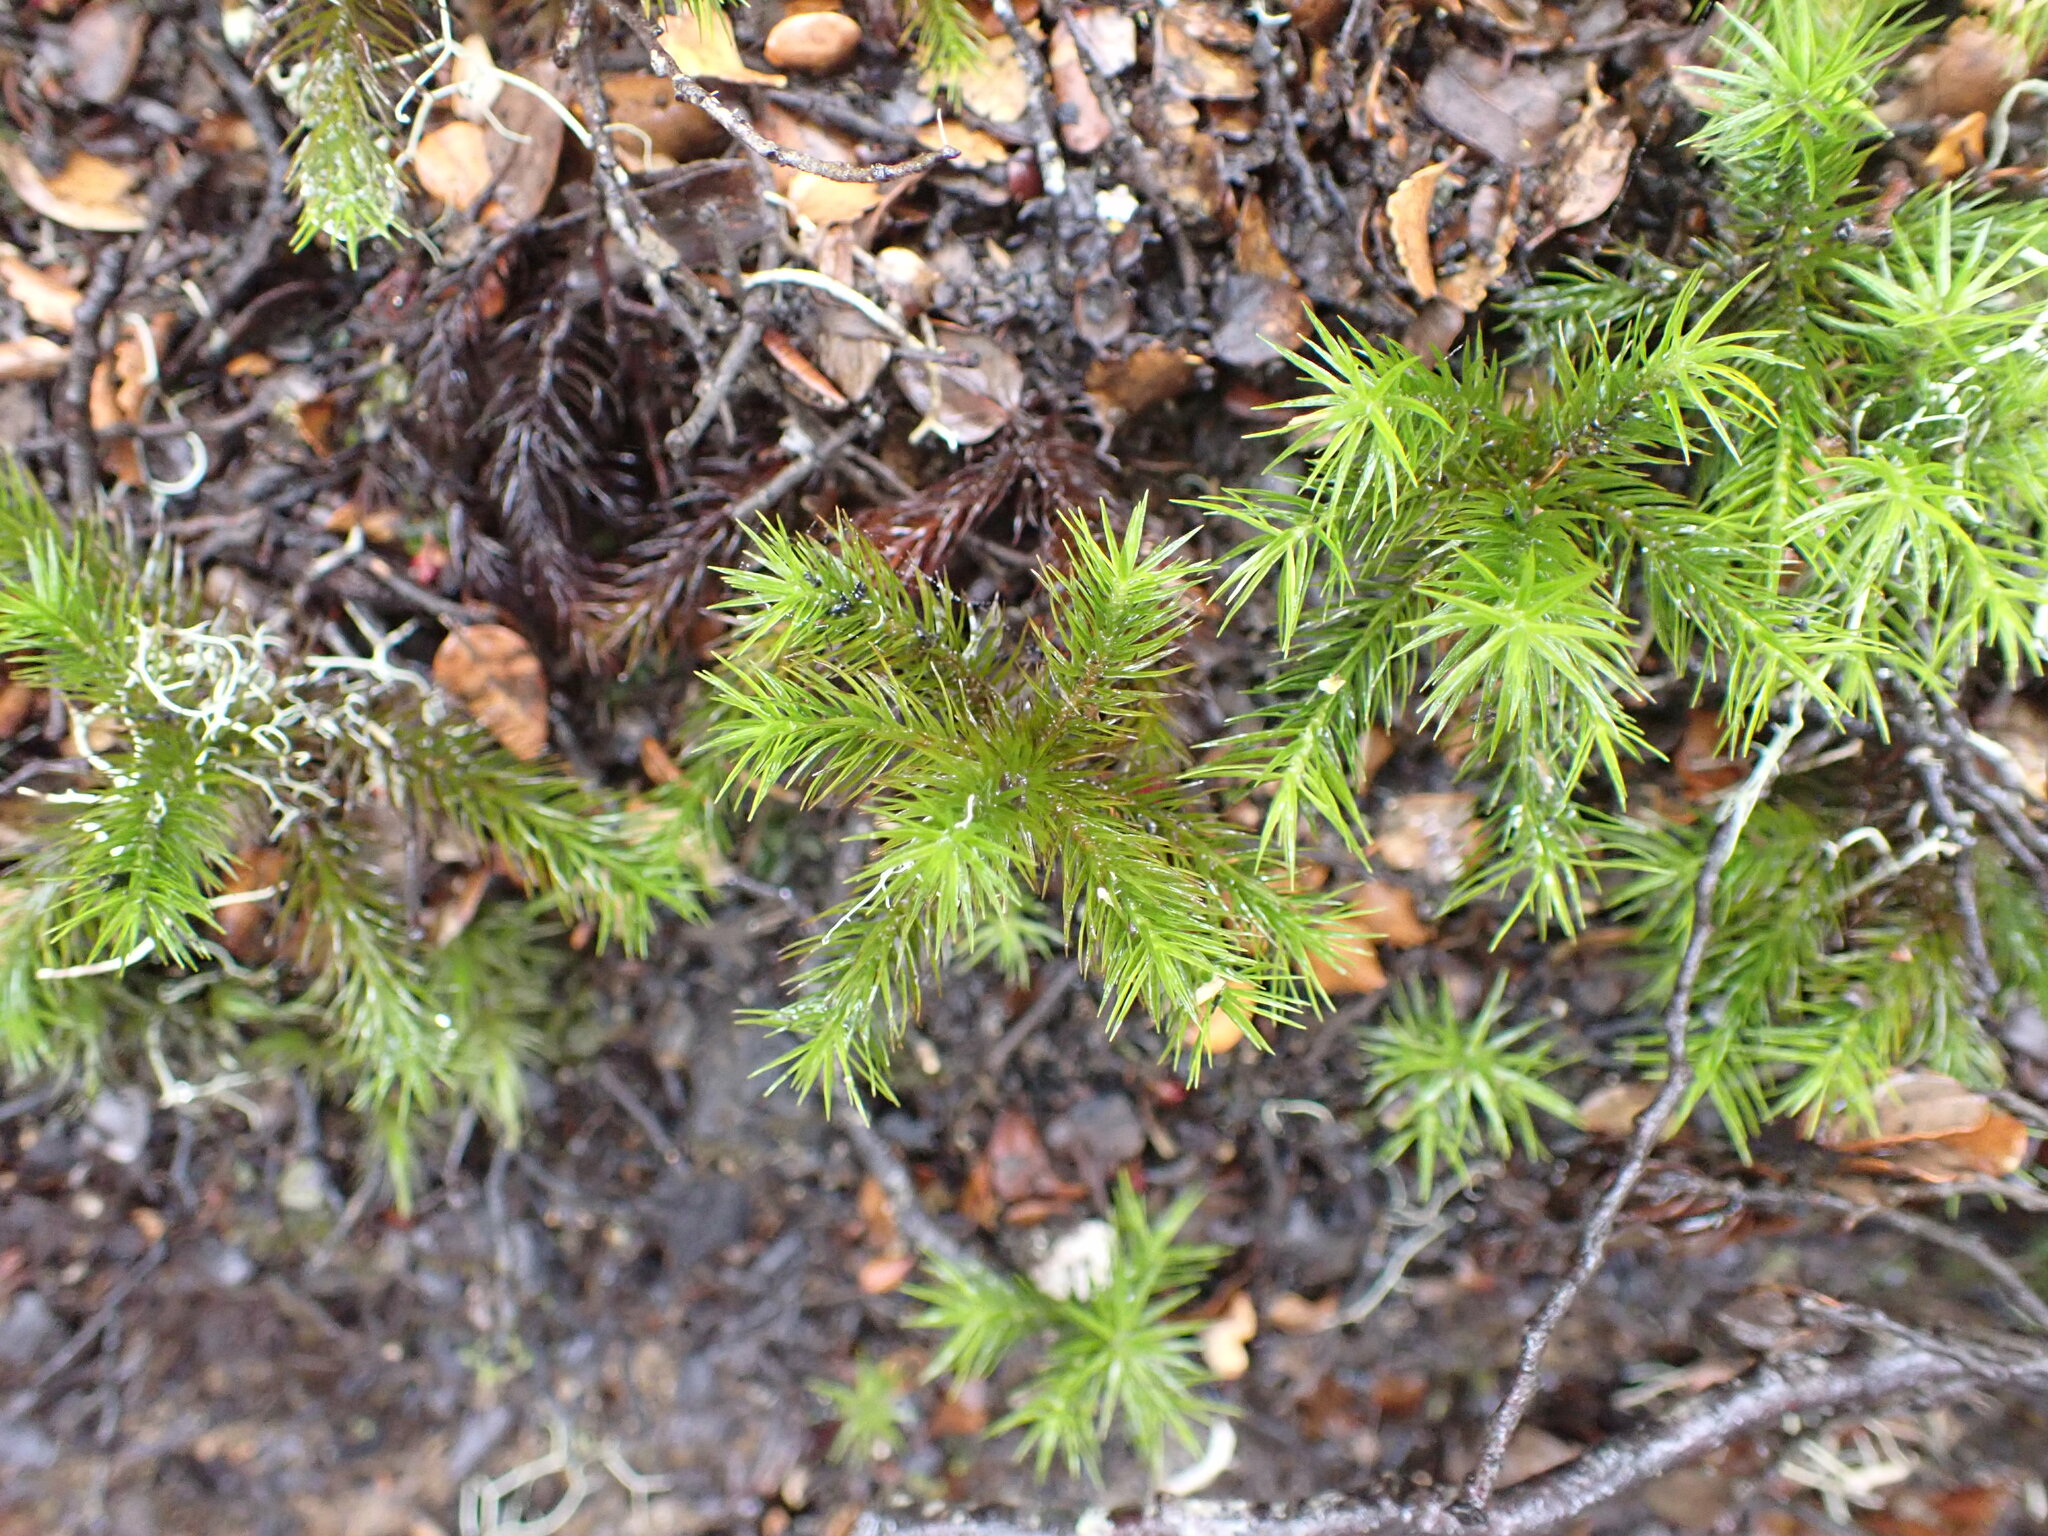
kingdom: Plantae
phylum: Bryophyta
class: Polytrichopsida
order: Polytrichales
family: Polytrichaceae
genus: Dendroligotrichum
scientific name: Dendroligotrichum tongariroense
